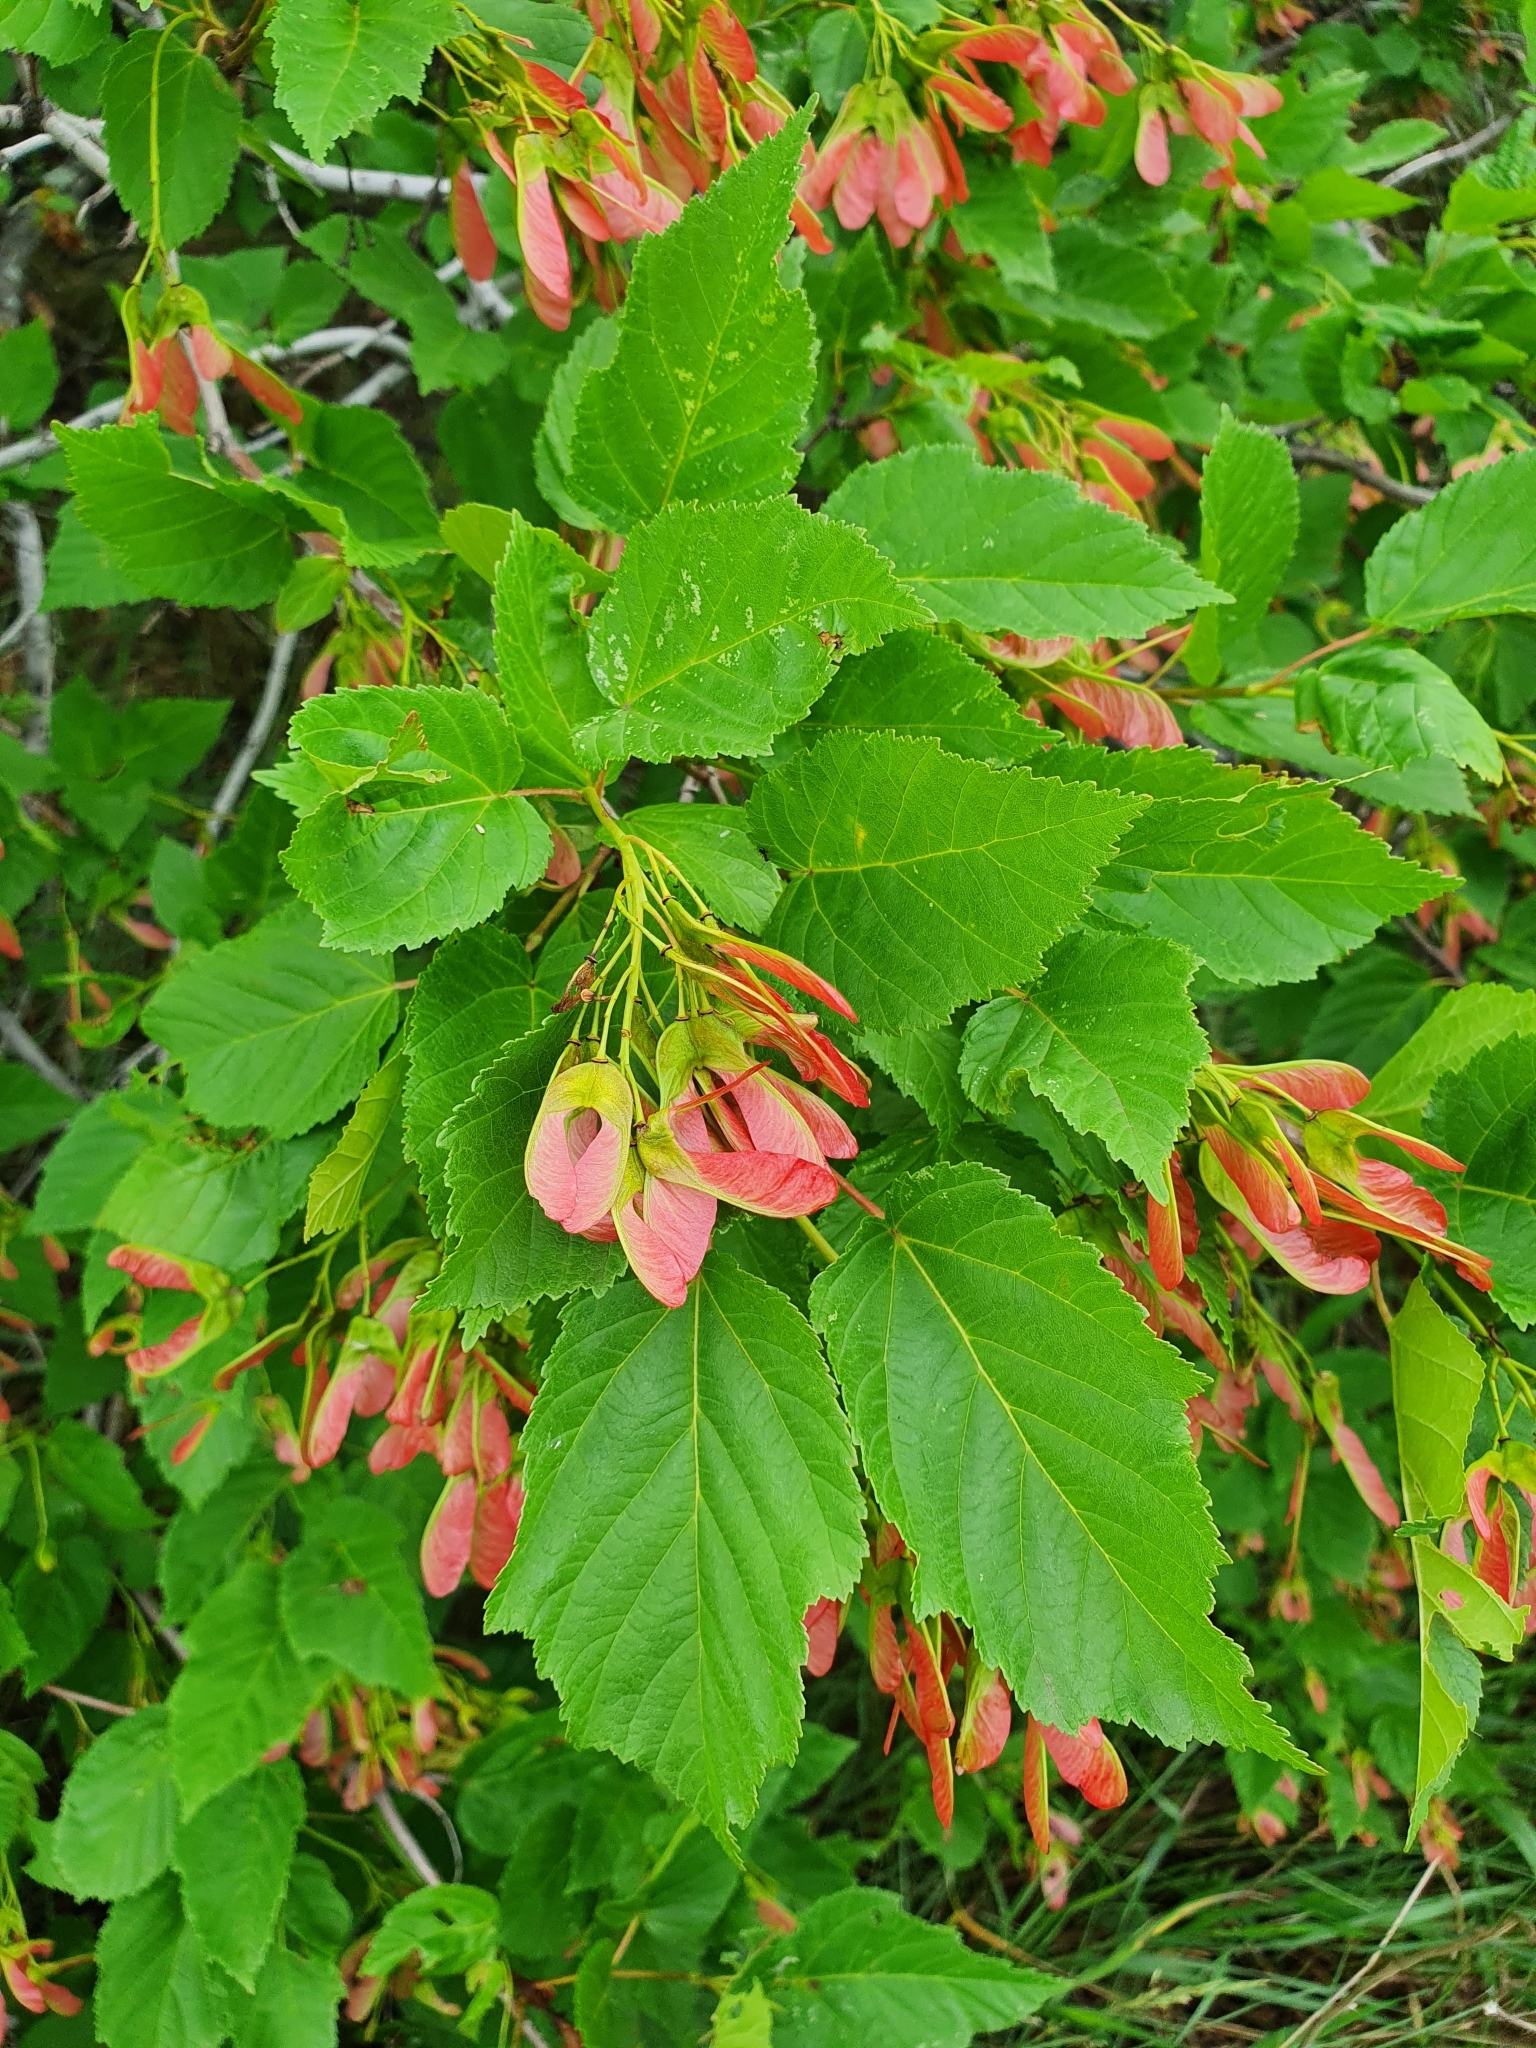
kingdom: Plantae
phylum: Tracheophyta
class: Magnoliopsida
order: Sapindales
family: Sapindaceae
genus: Acer
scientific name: Acer tataricum
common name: Tartar maple
